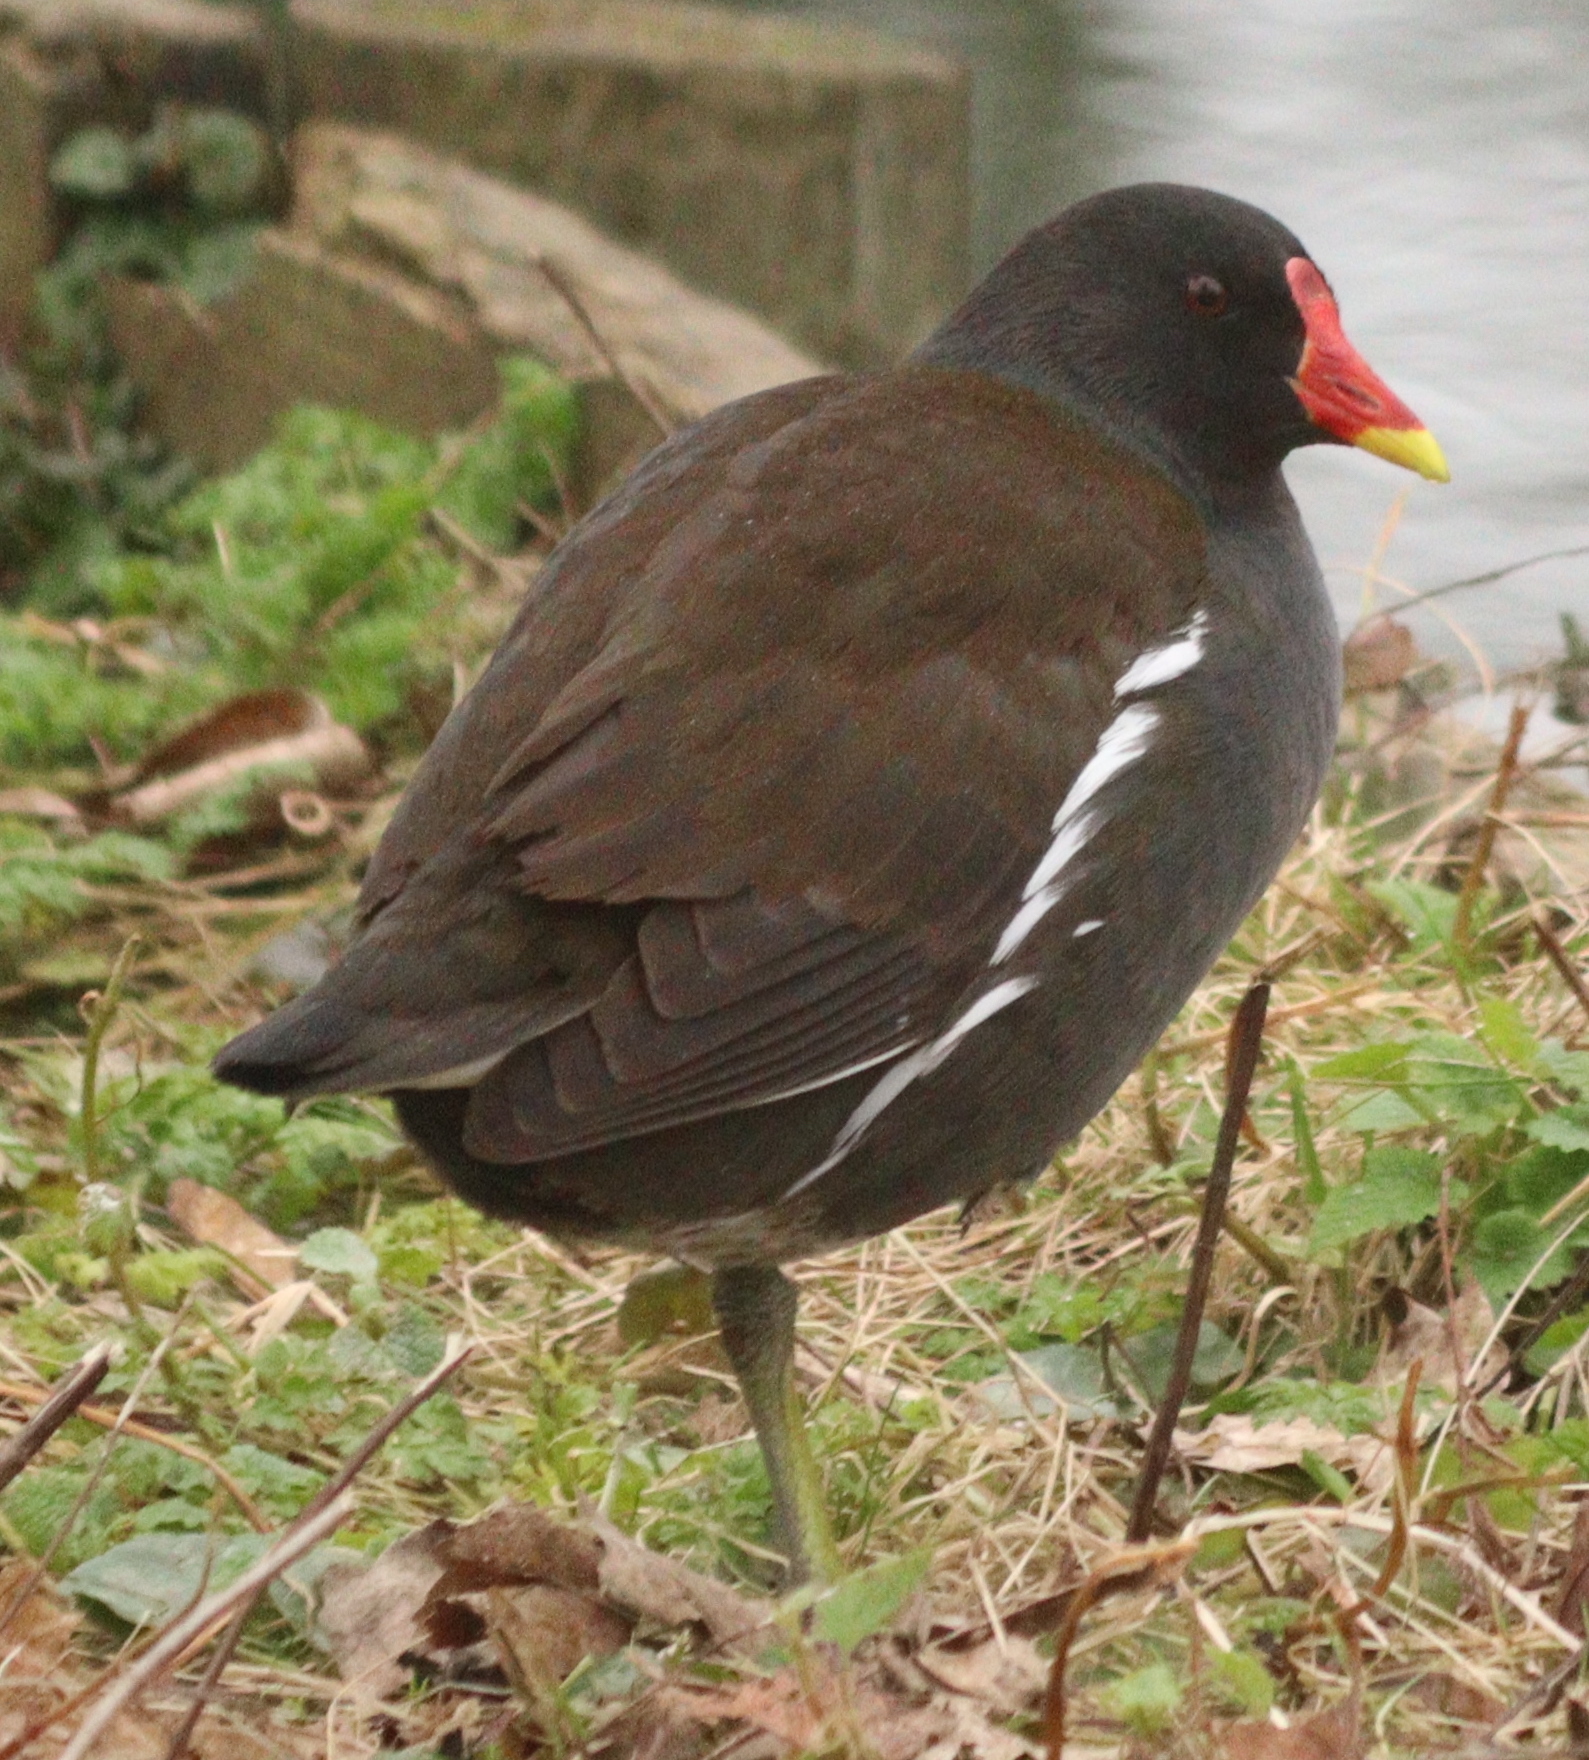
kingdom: Animalia
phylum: Chordata
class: Aves
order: Gruiformes
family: Rallidae
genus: Gallinula
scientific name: Gallinula chloropus
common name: Common moorhen
